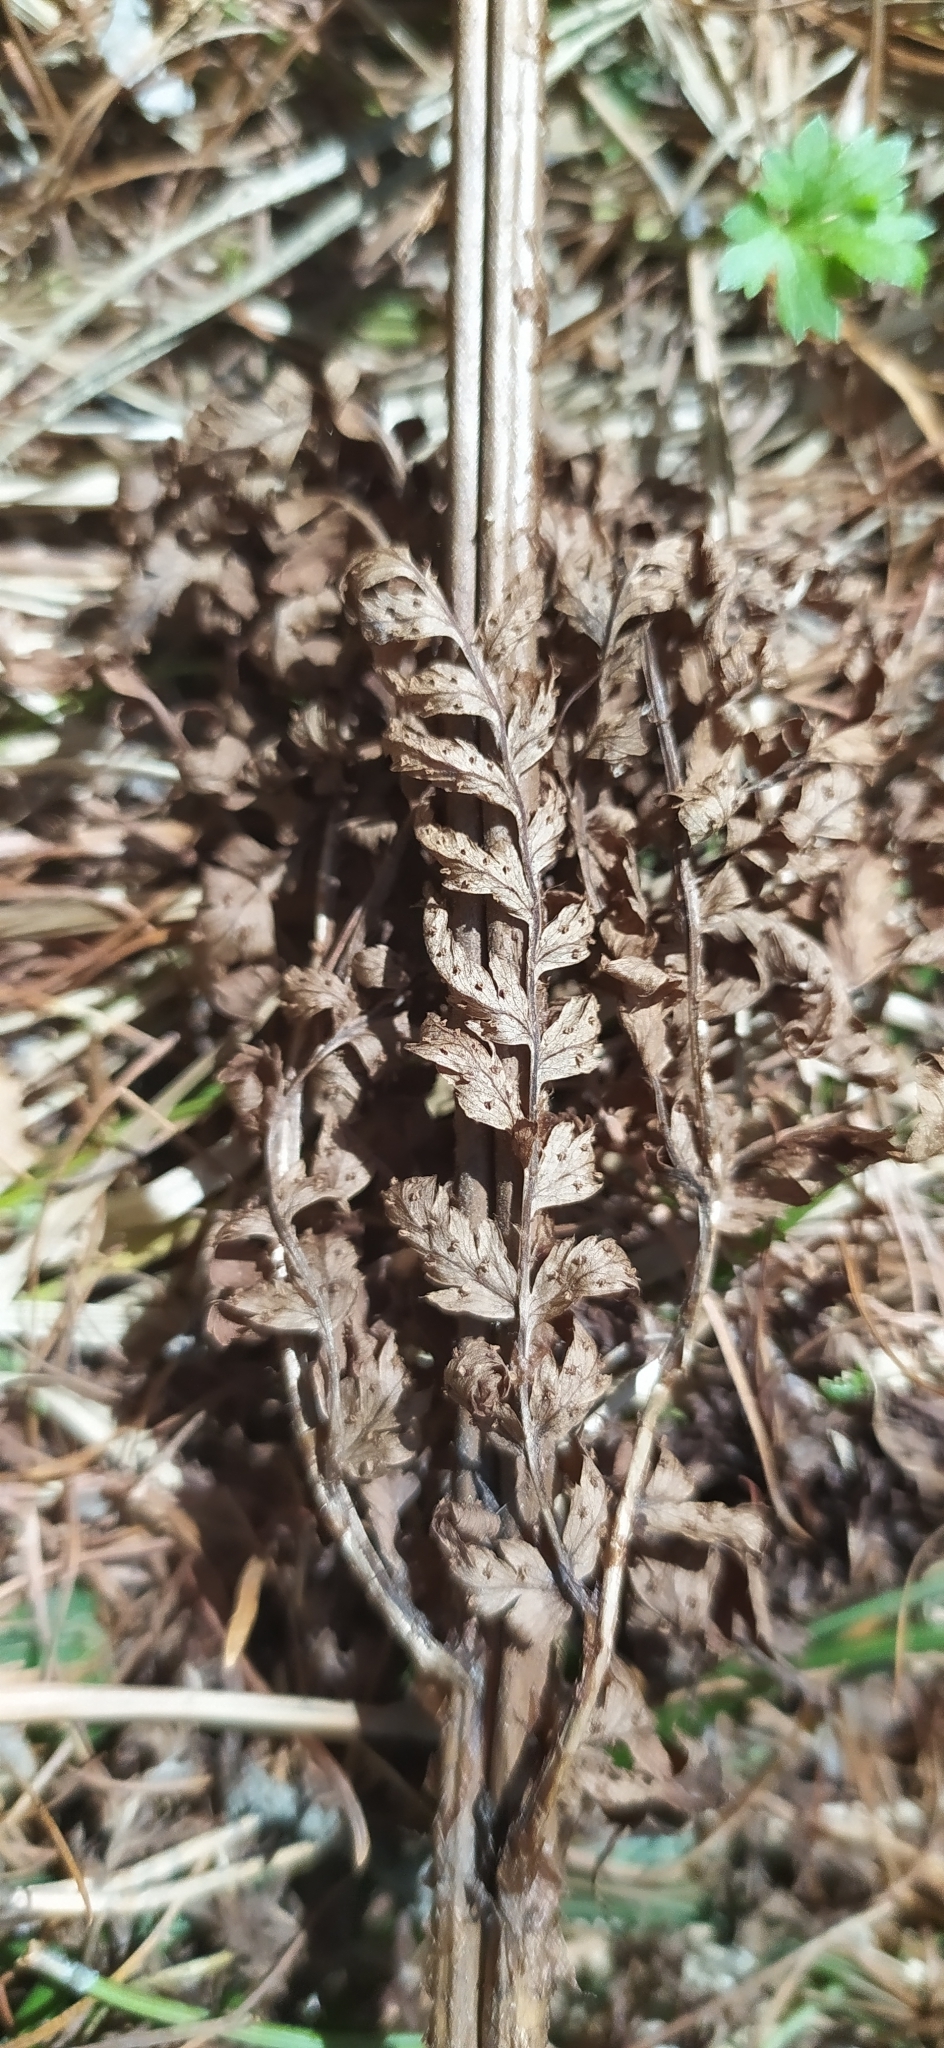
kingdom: Plantae
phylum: Tracheophyta
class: Polypodiopsida
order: Polypodiales
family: Athyriaceae
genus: Athyrium
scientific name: Athyrium filix-femina
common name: Lady fern
